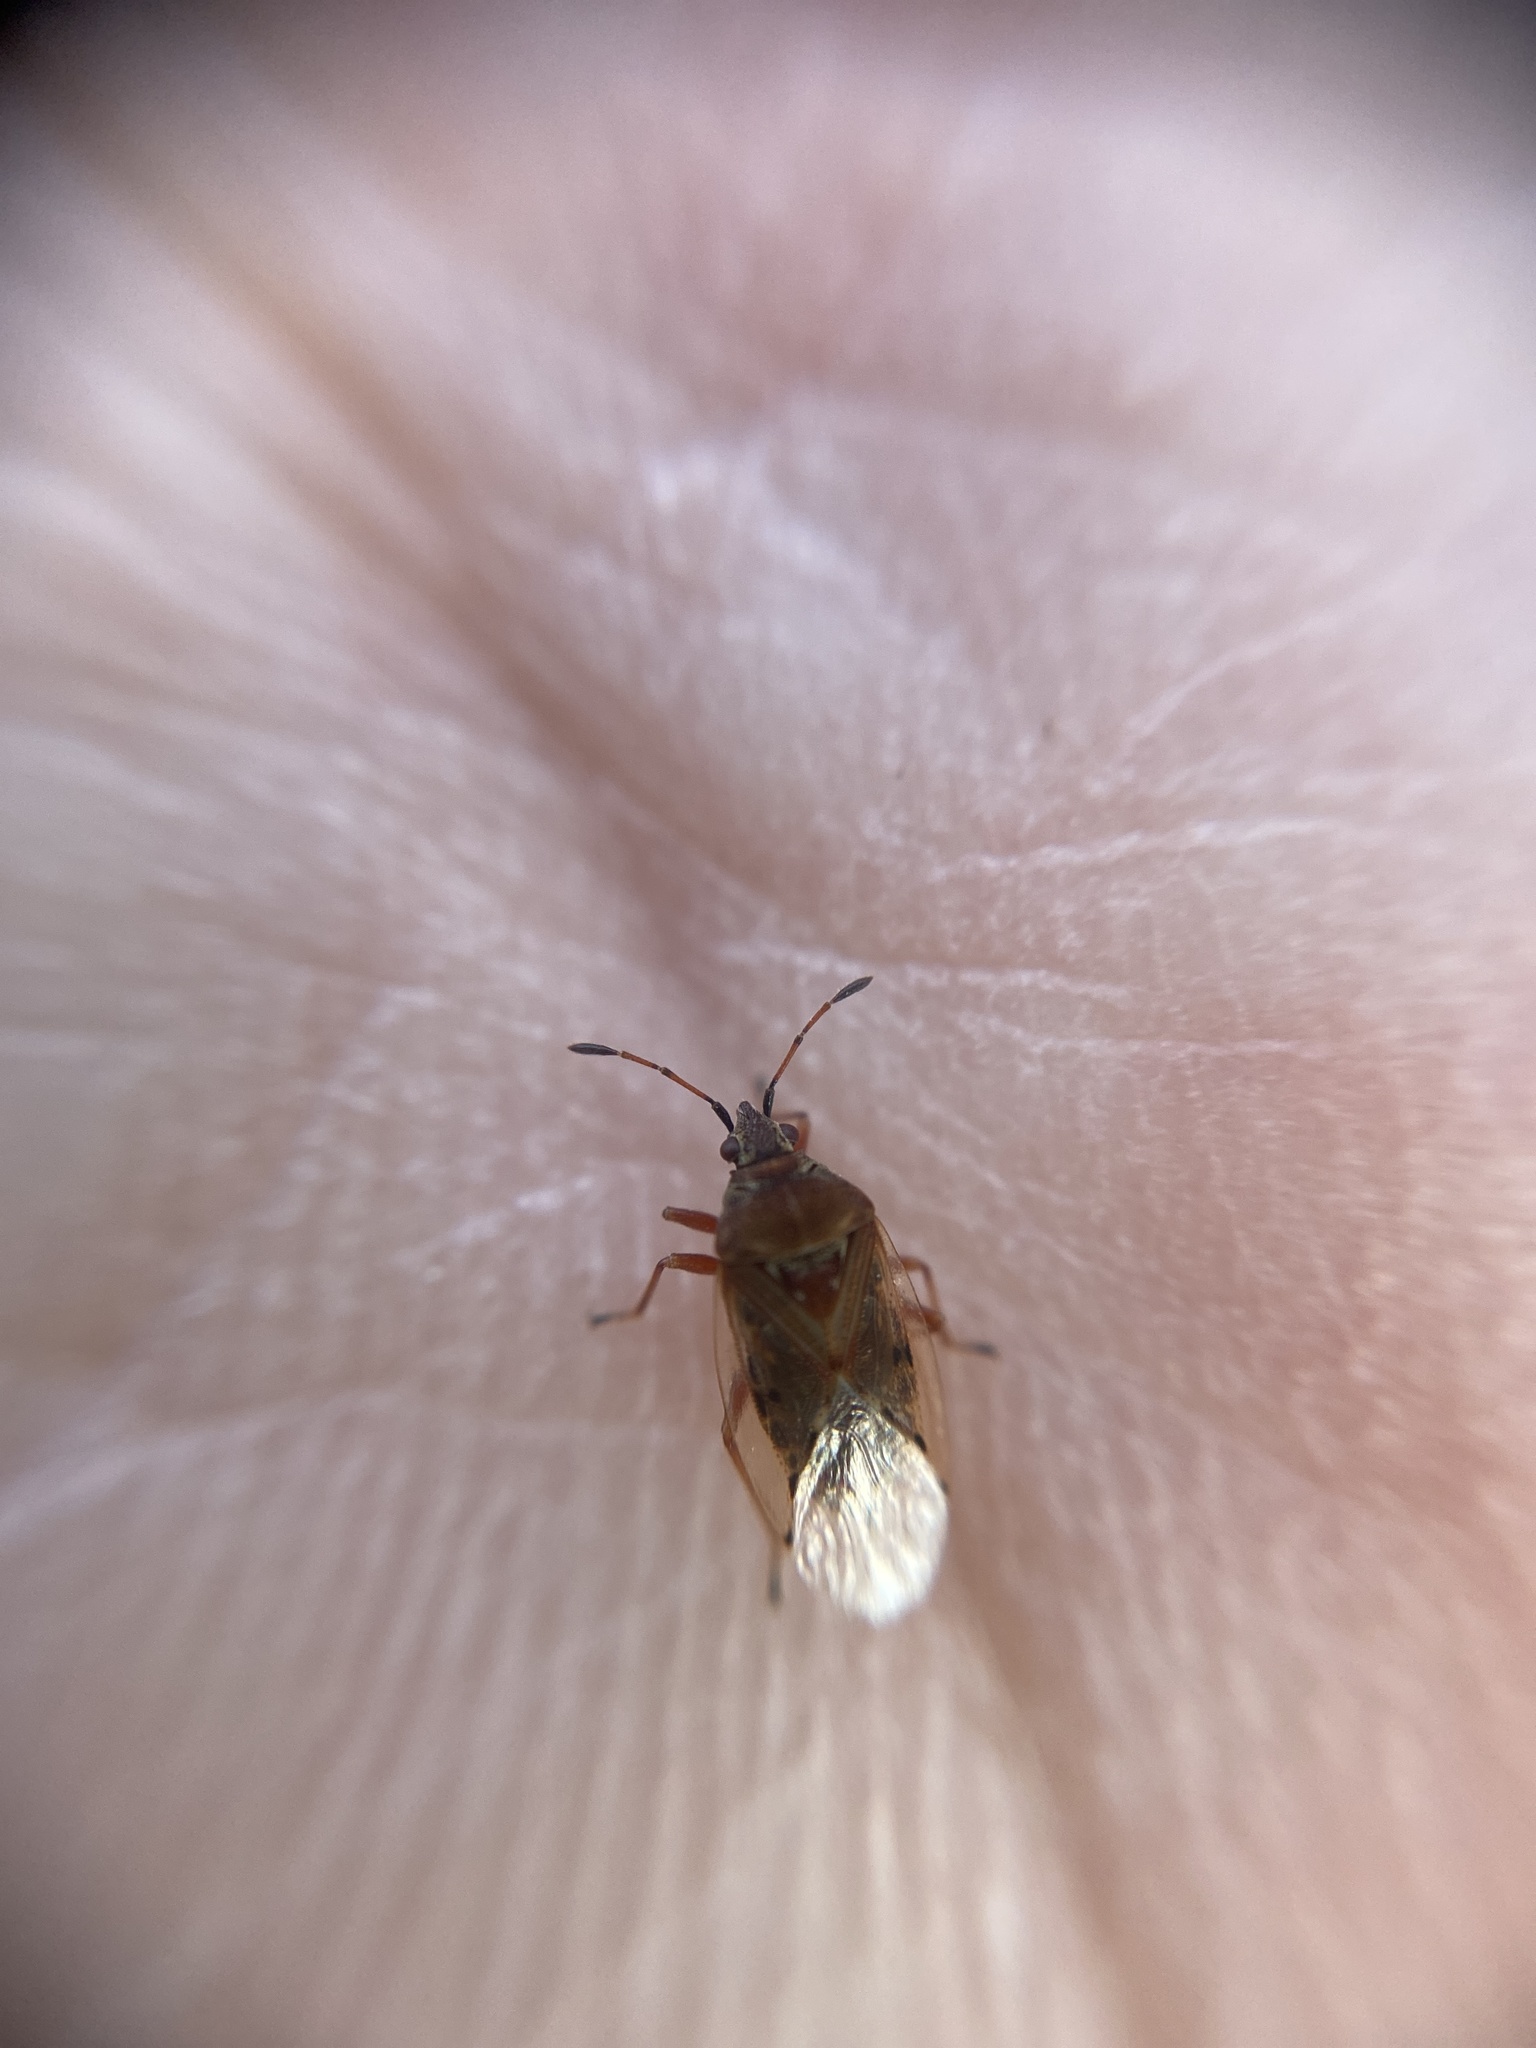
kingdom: Animalia
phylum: Arthropoda
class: Insecta
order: Hemiptera
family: Lygaeidae
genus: Kleidocerys
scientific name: Kleidocerys resedae
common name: Birch catkin bug
